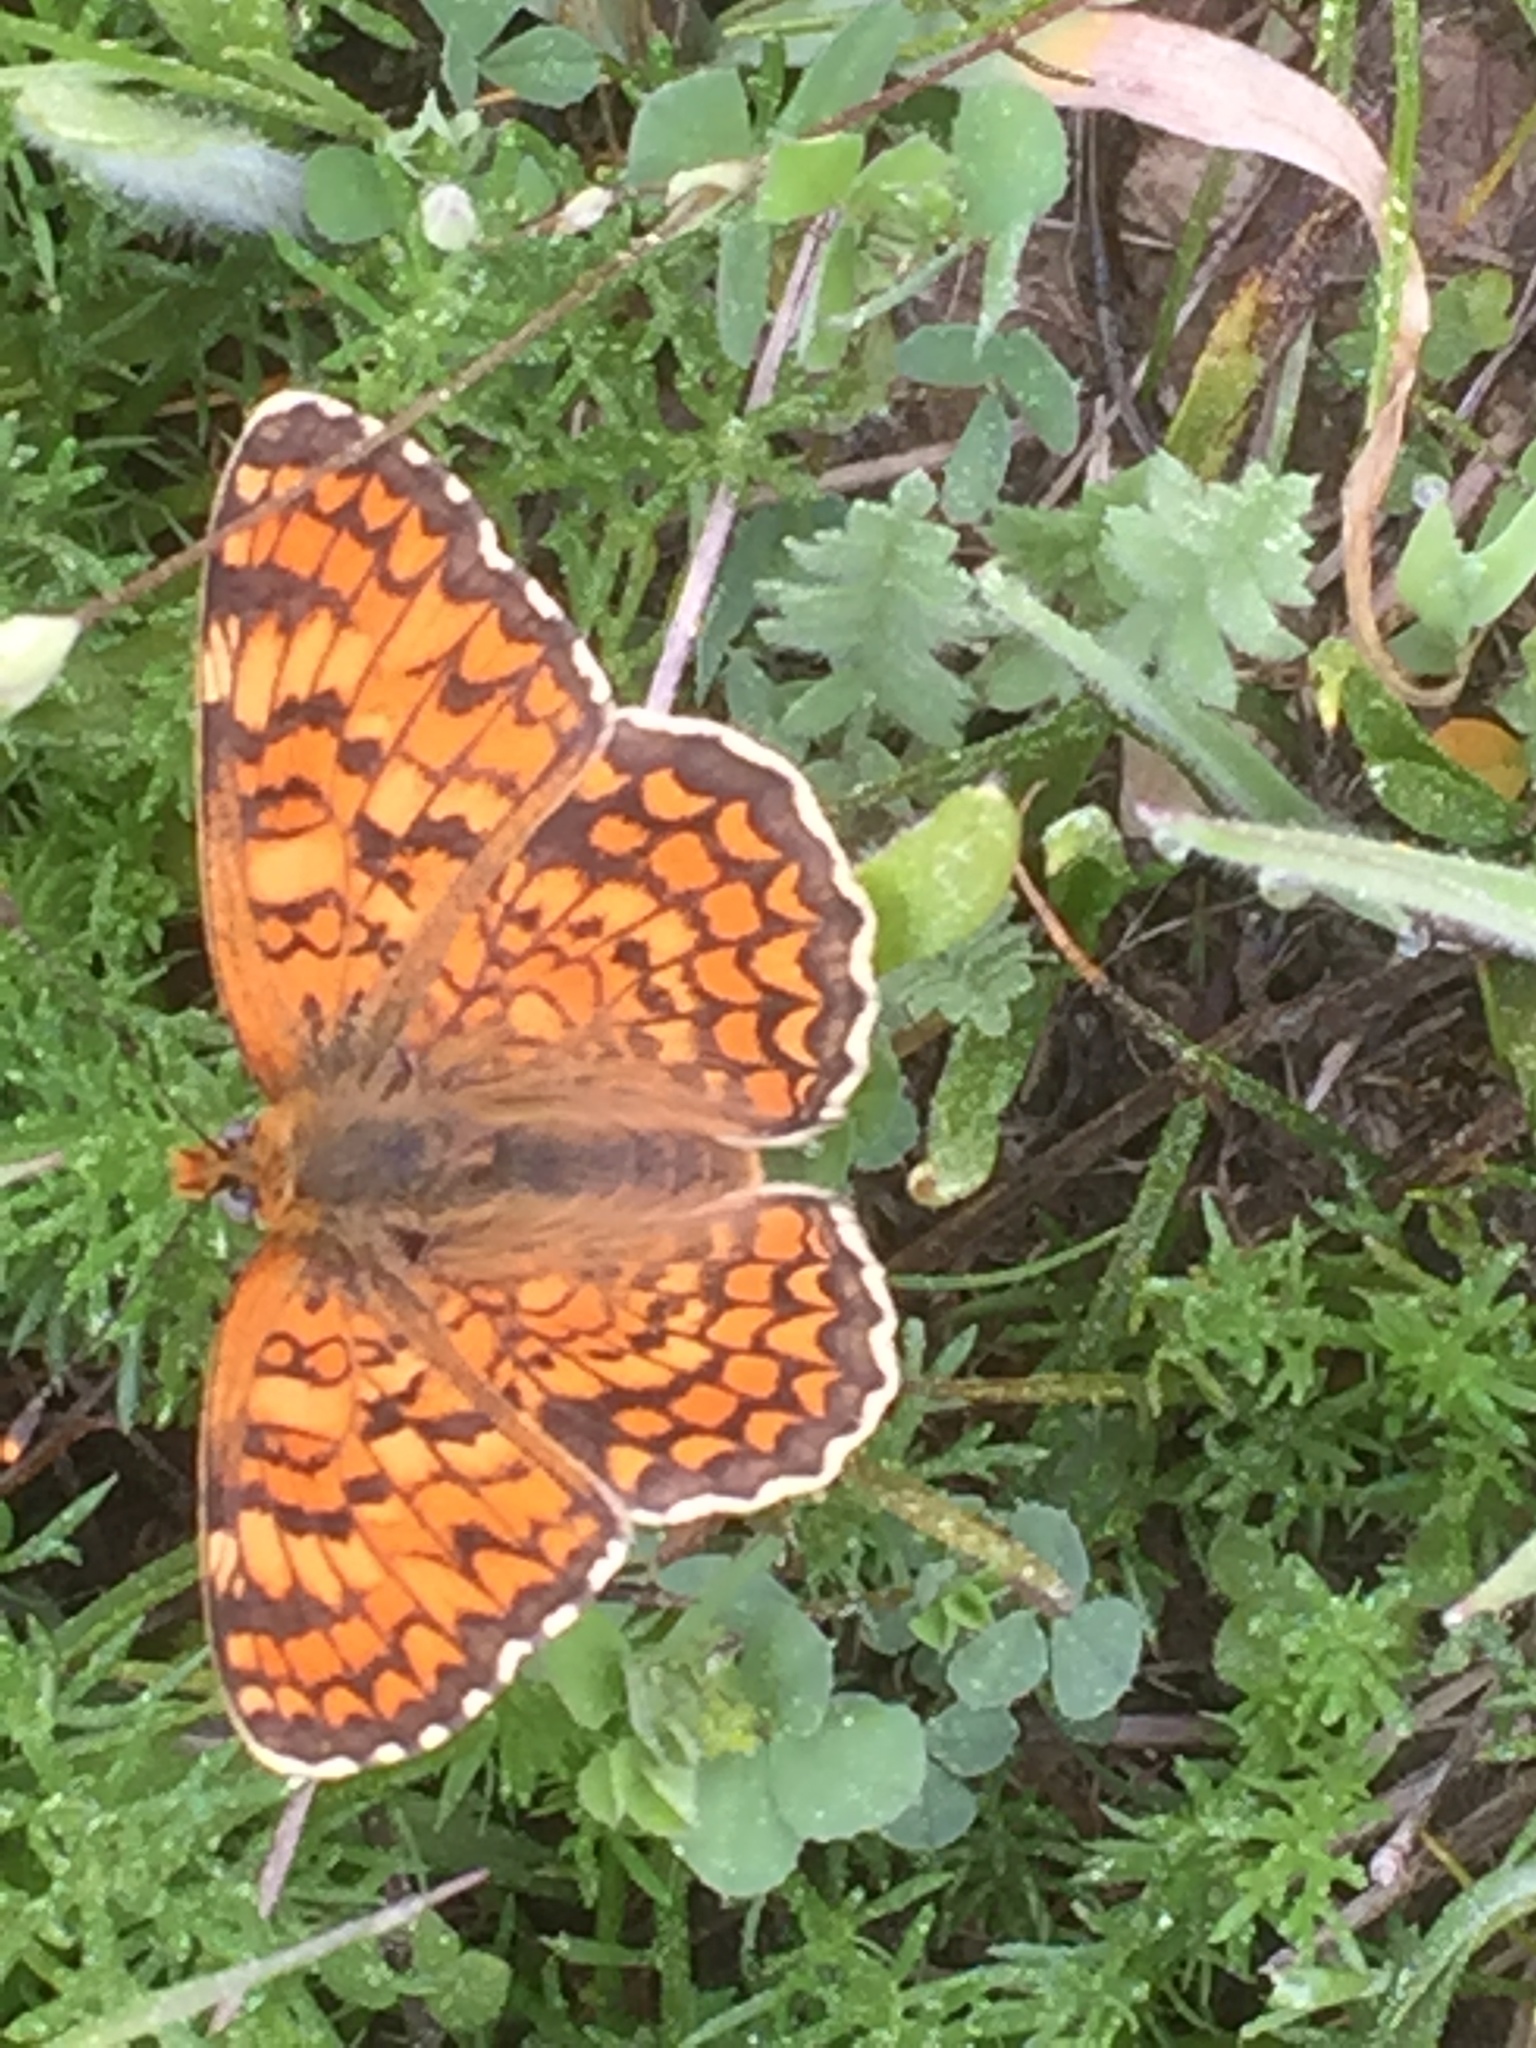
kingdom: Animalia
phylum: Arthropoda
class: Insecta
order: Lepidoptera
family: Nymphalidae
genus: Melitaea
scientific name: Melitaea phoebe
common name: Knapweed fritillary
